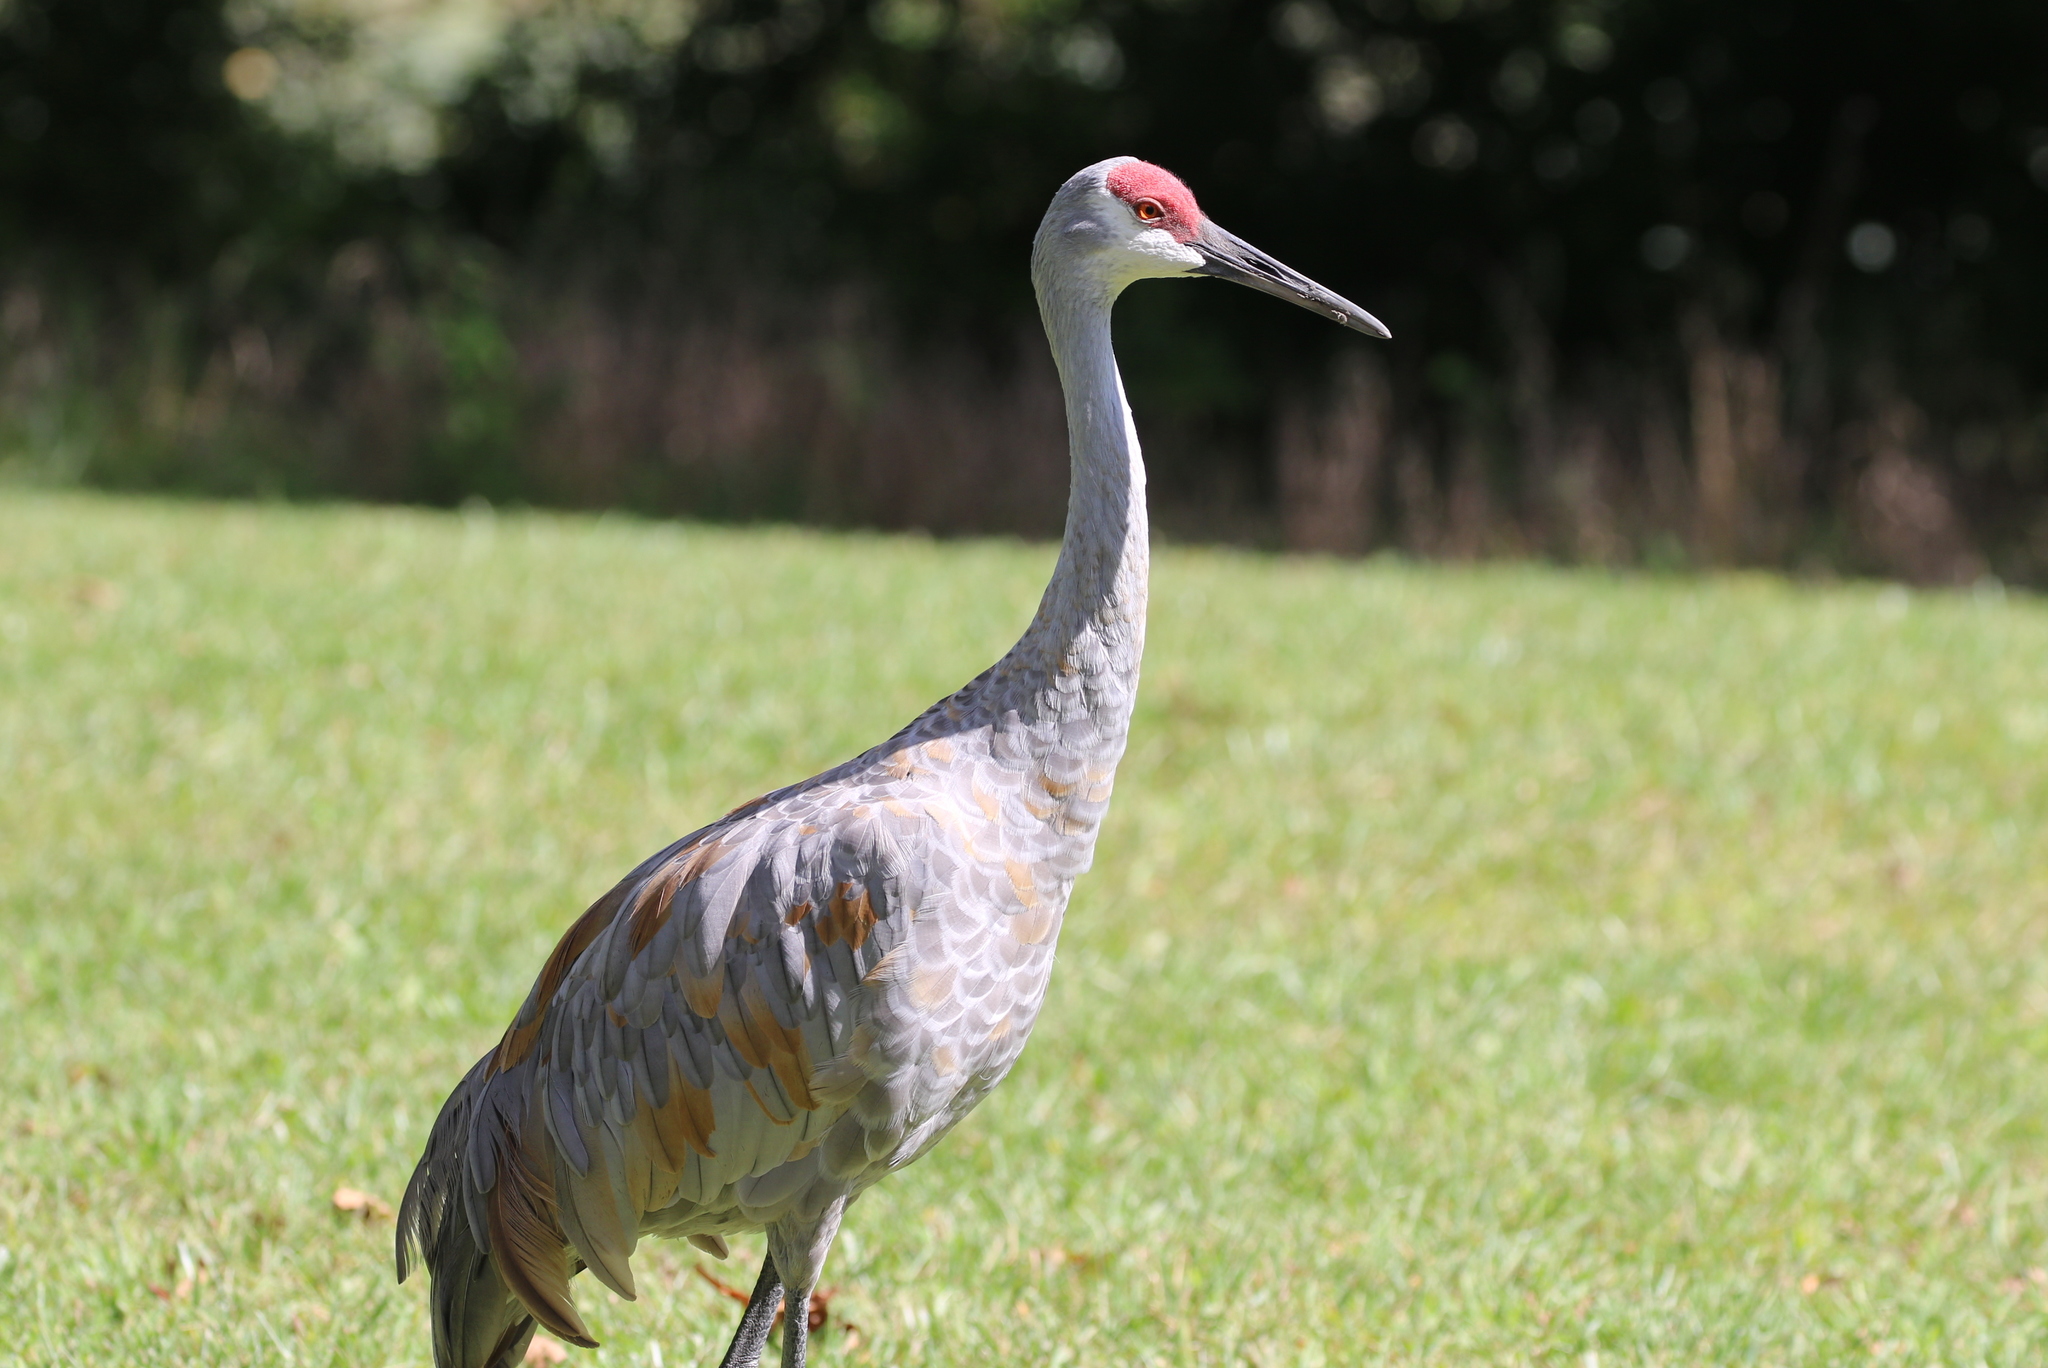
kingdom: Animalia
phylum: Chordata
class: Aves
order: Gruiformes
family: Gruidae
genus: Grus
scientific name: Grus canadensis
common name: Sandhill crane
